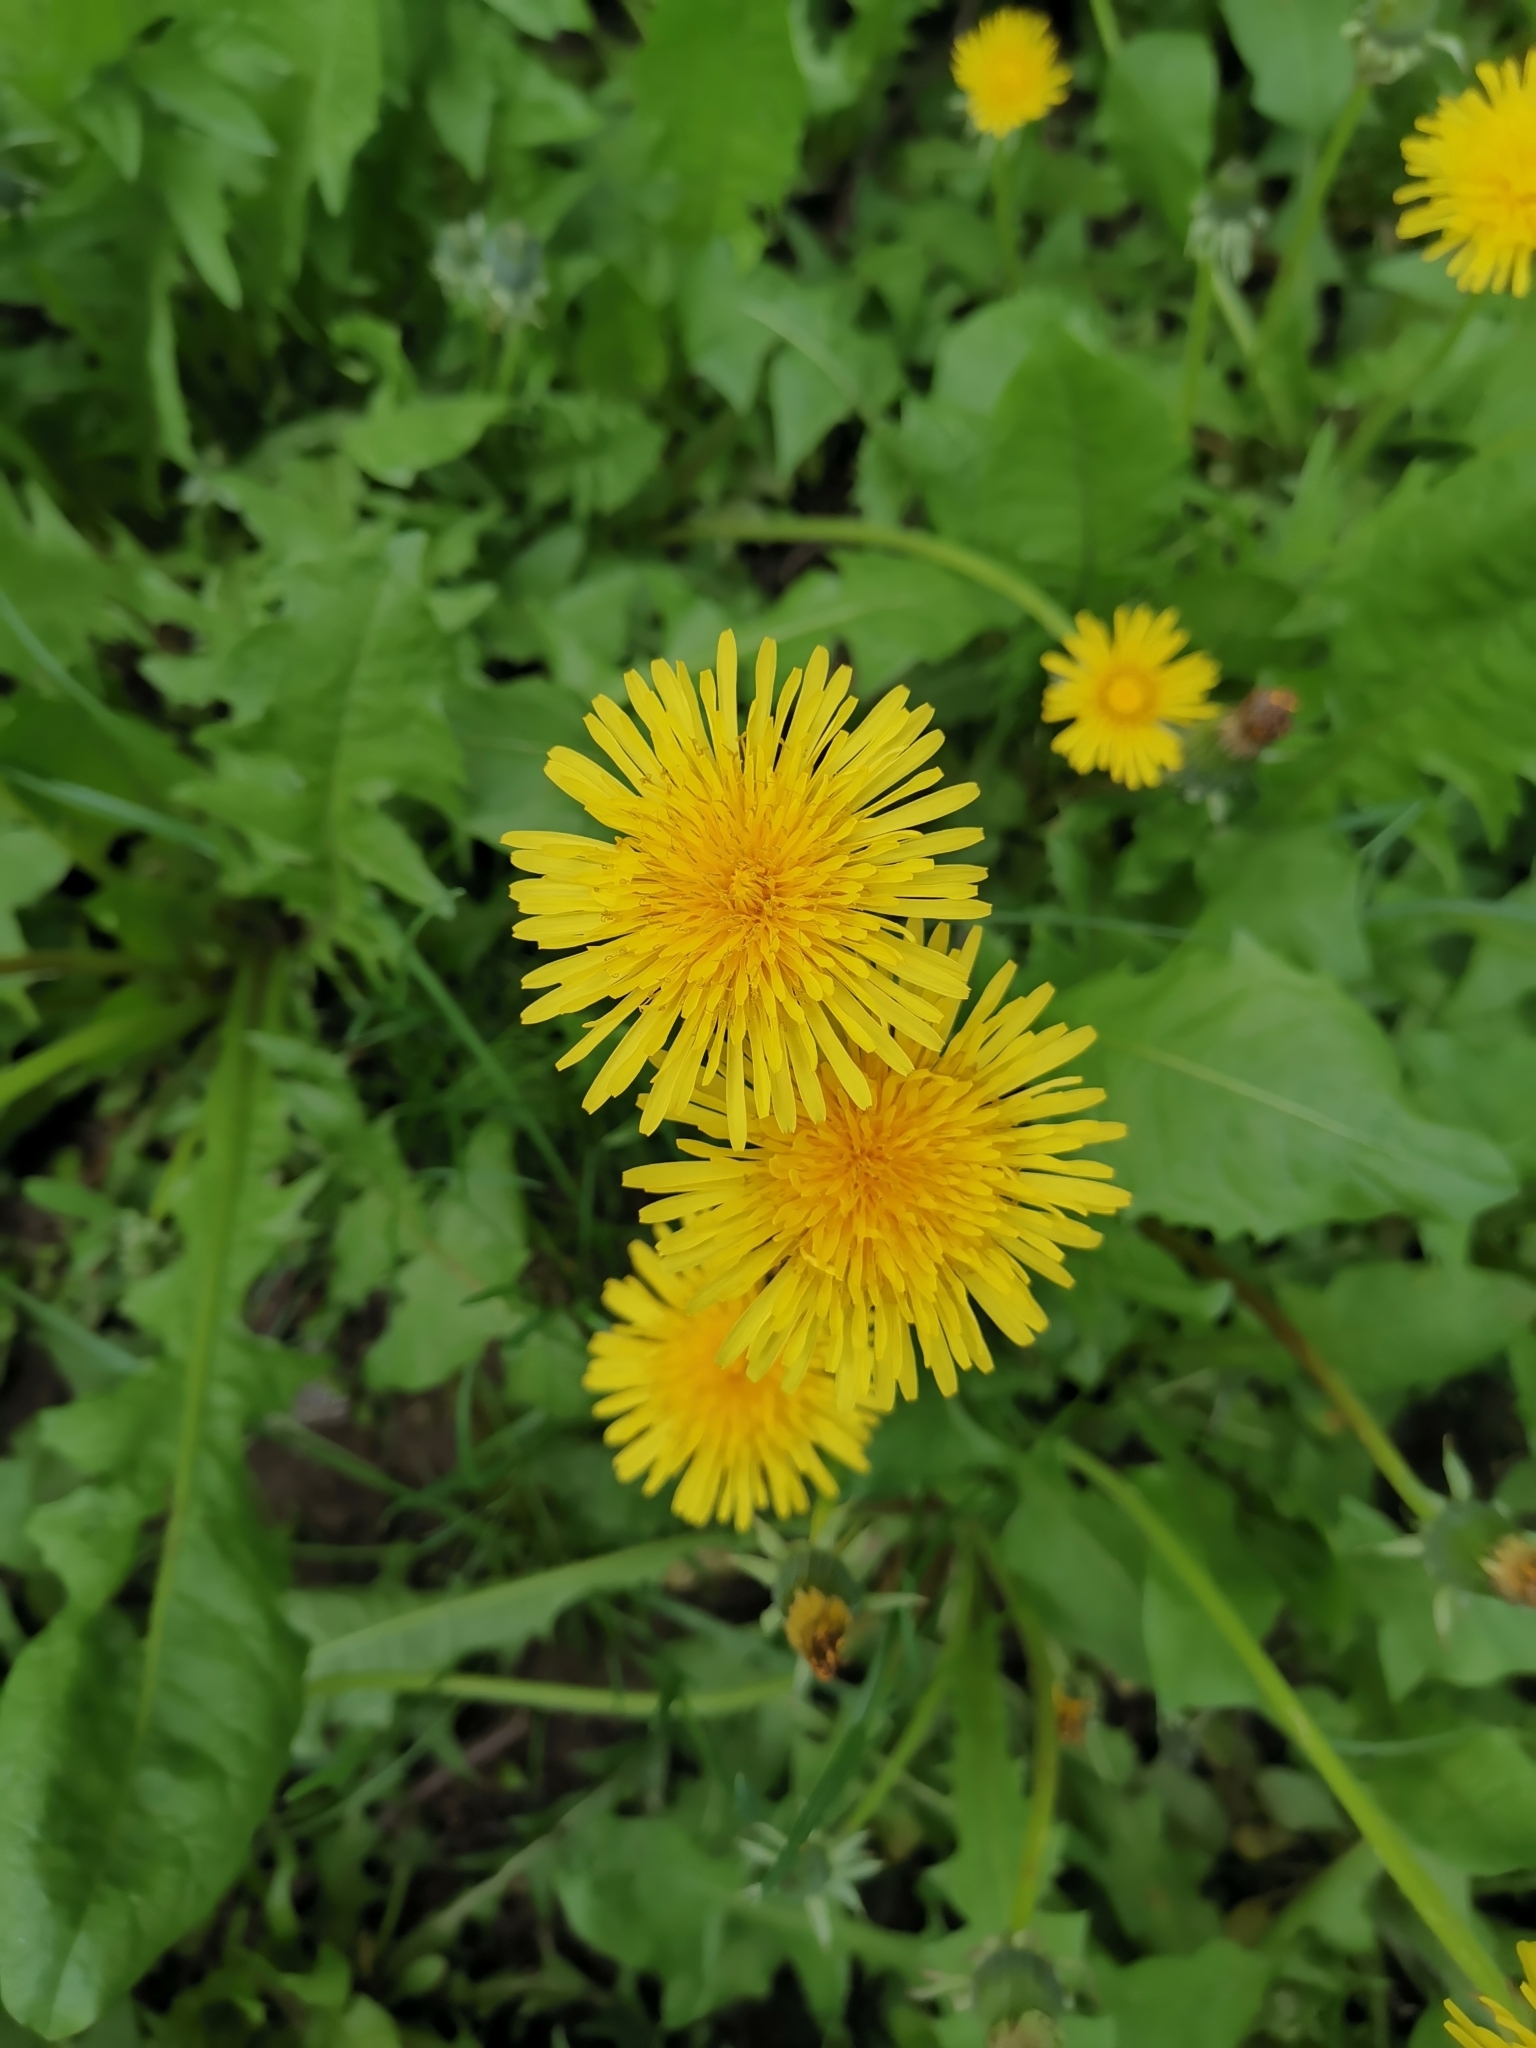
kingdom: Plantae
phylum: Tracheophyta
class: Magnoliopsida
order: Asterales
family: Asteraceae
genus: Taraxacum
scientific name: Taraxacum officinale
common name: Common dandelion
